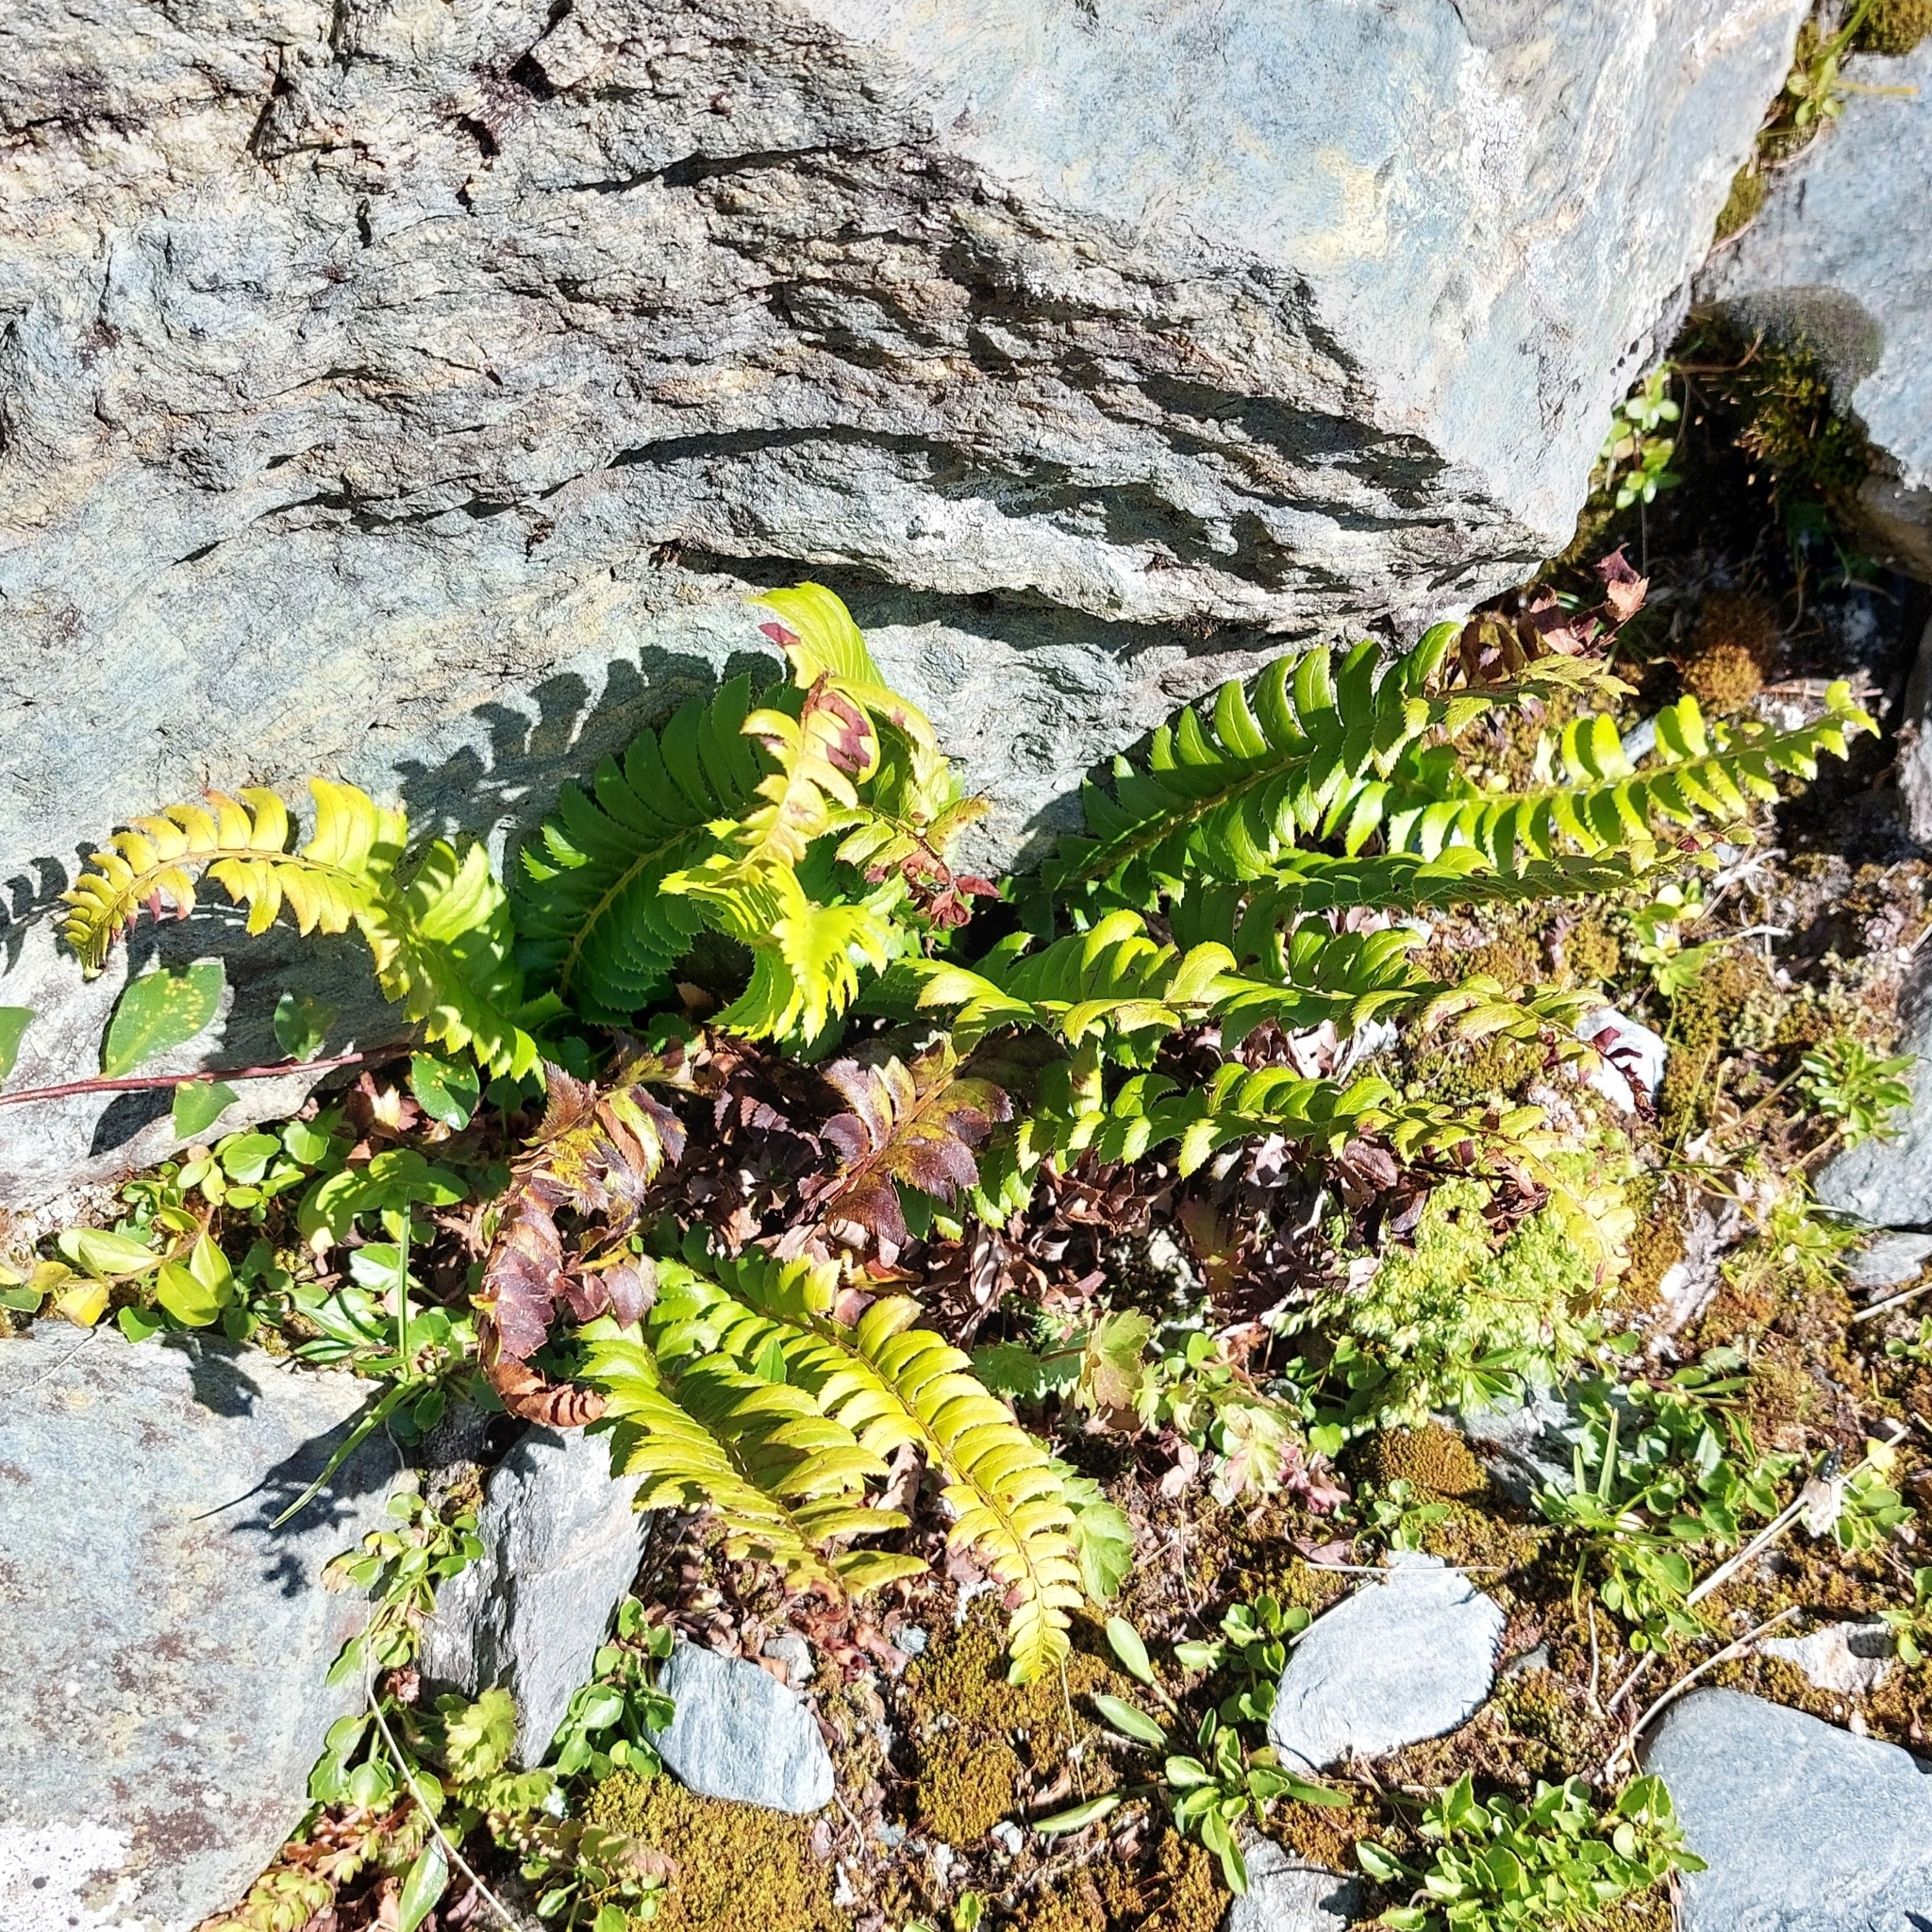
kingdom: Plantae
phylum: Tracheophyta
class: Polypodiopsida
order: Polypodiales
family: Dryopteridaceae
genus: Polystichum
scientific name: Polystichum lonchitis
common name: Holly fern
